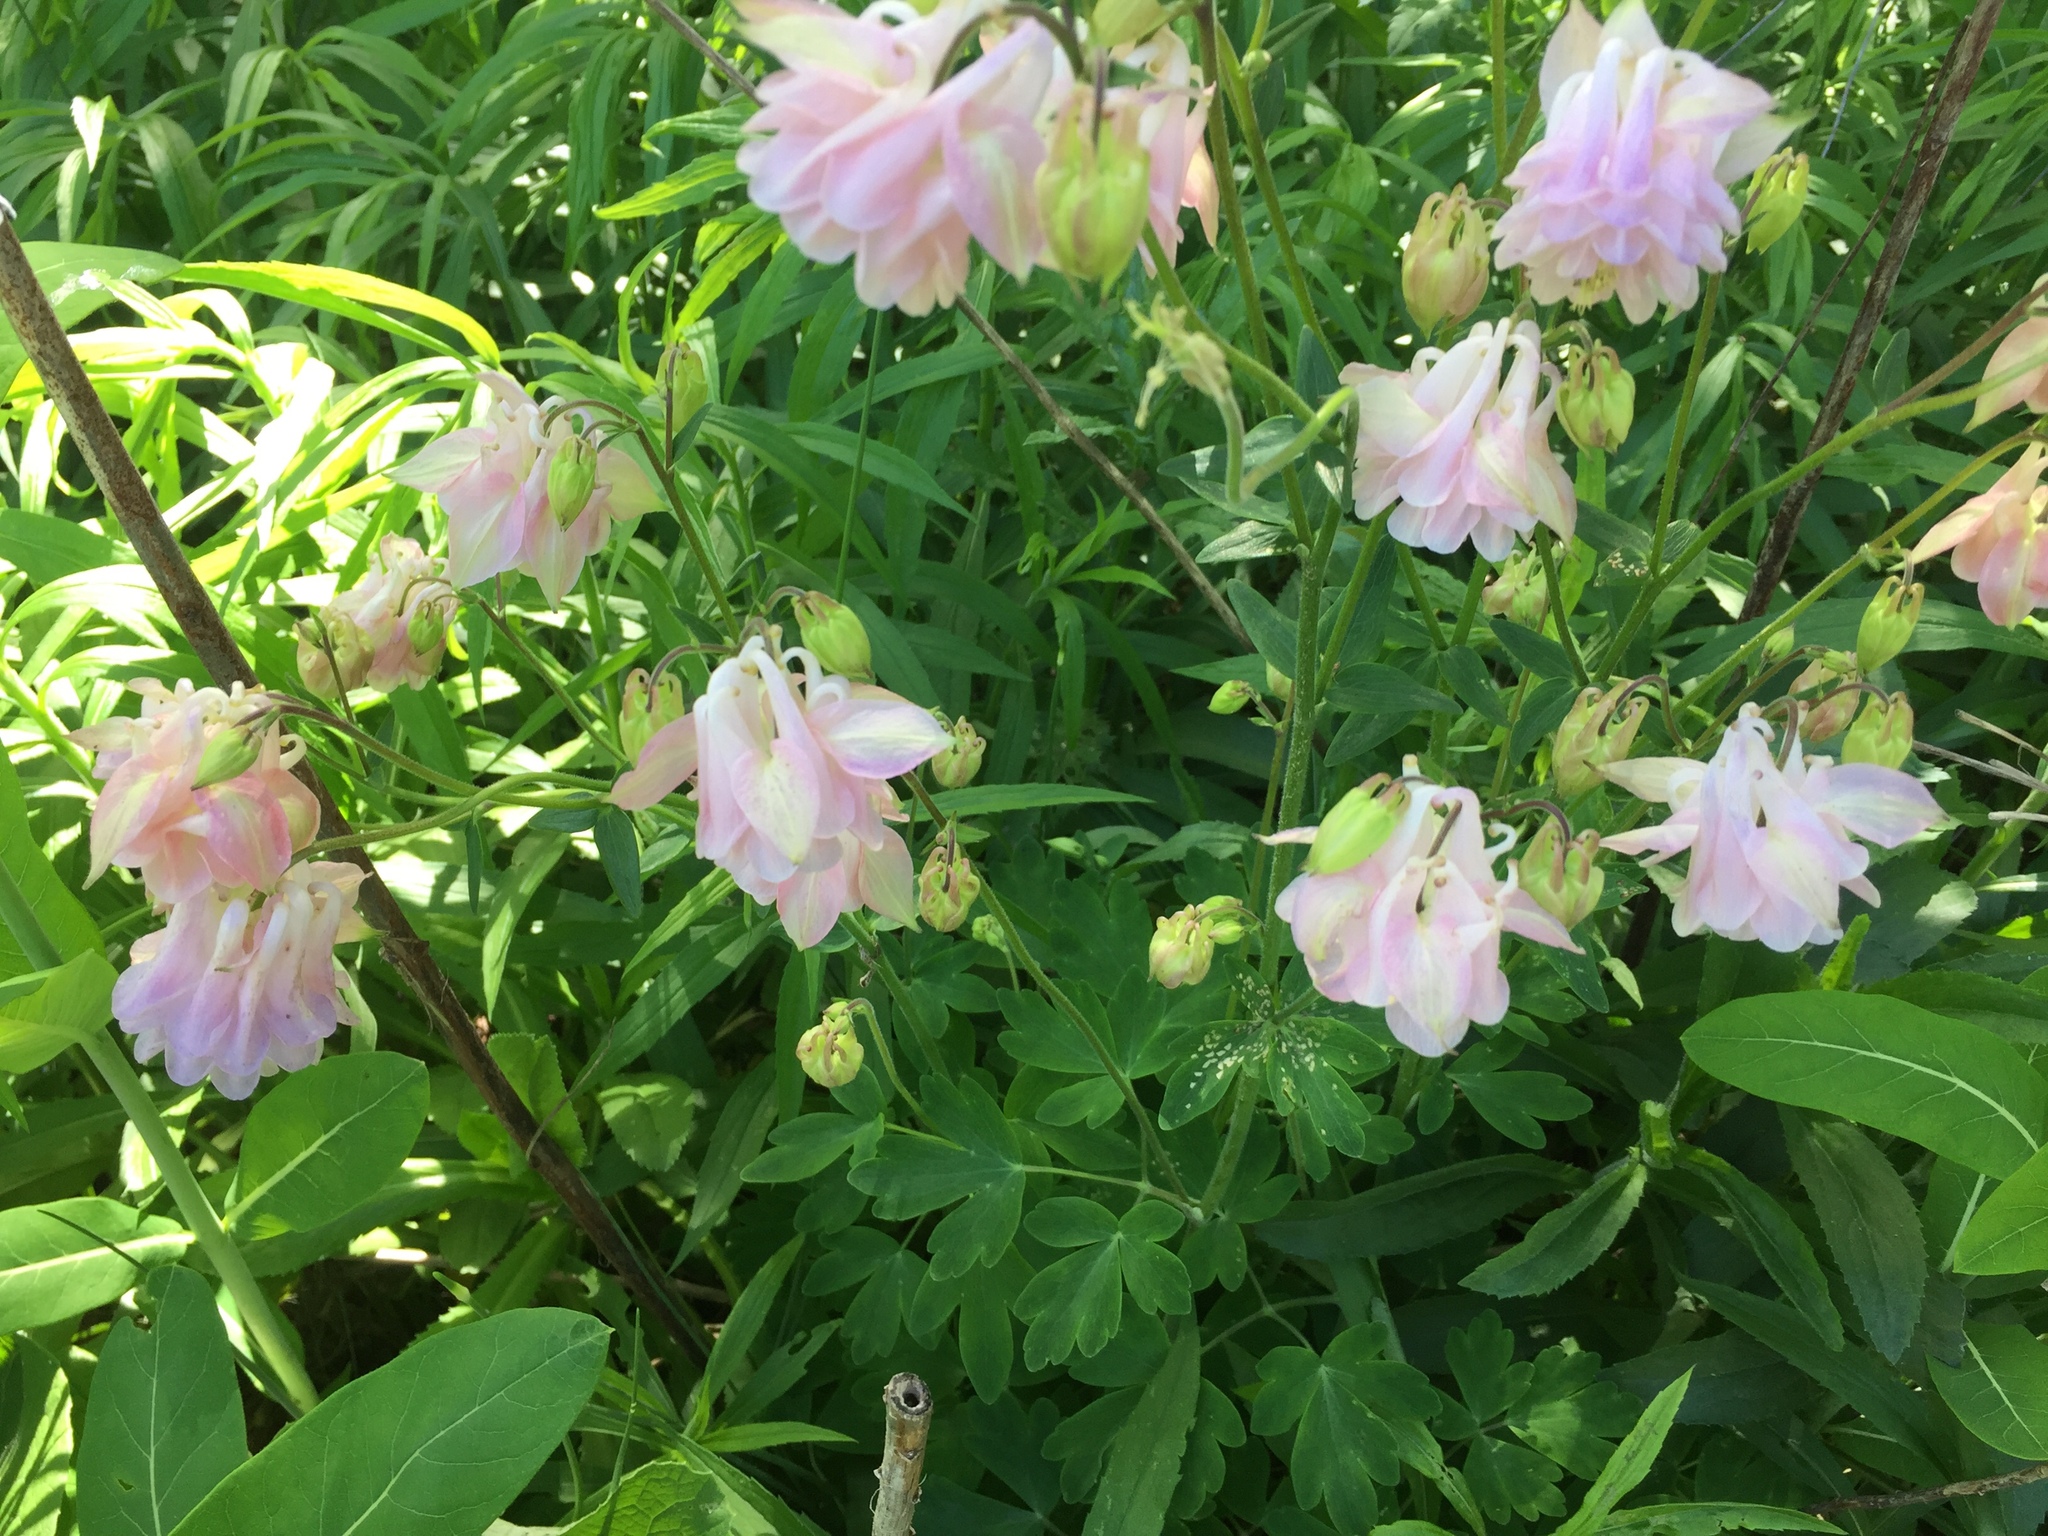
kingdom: Plantae
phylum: Tracheophyta
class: Magnoliopsida
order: Ranunculales
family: Ranunculaceae
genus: Aquilegia
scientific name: Aquilegia vulgaris
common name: Columbine
